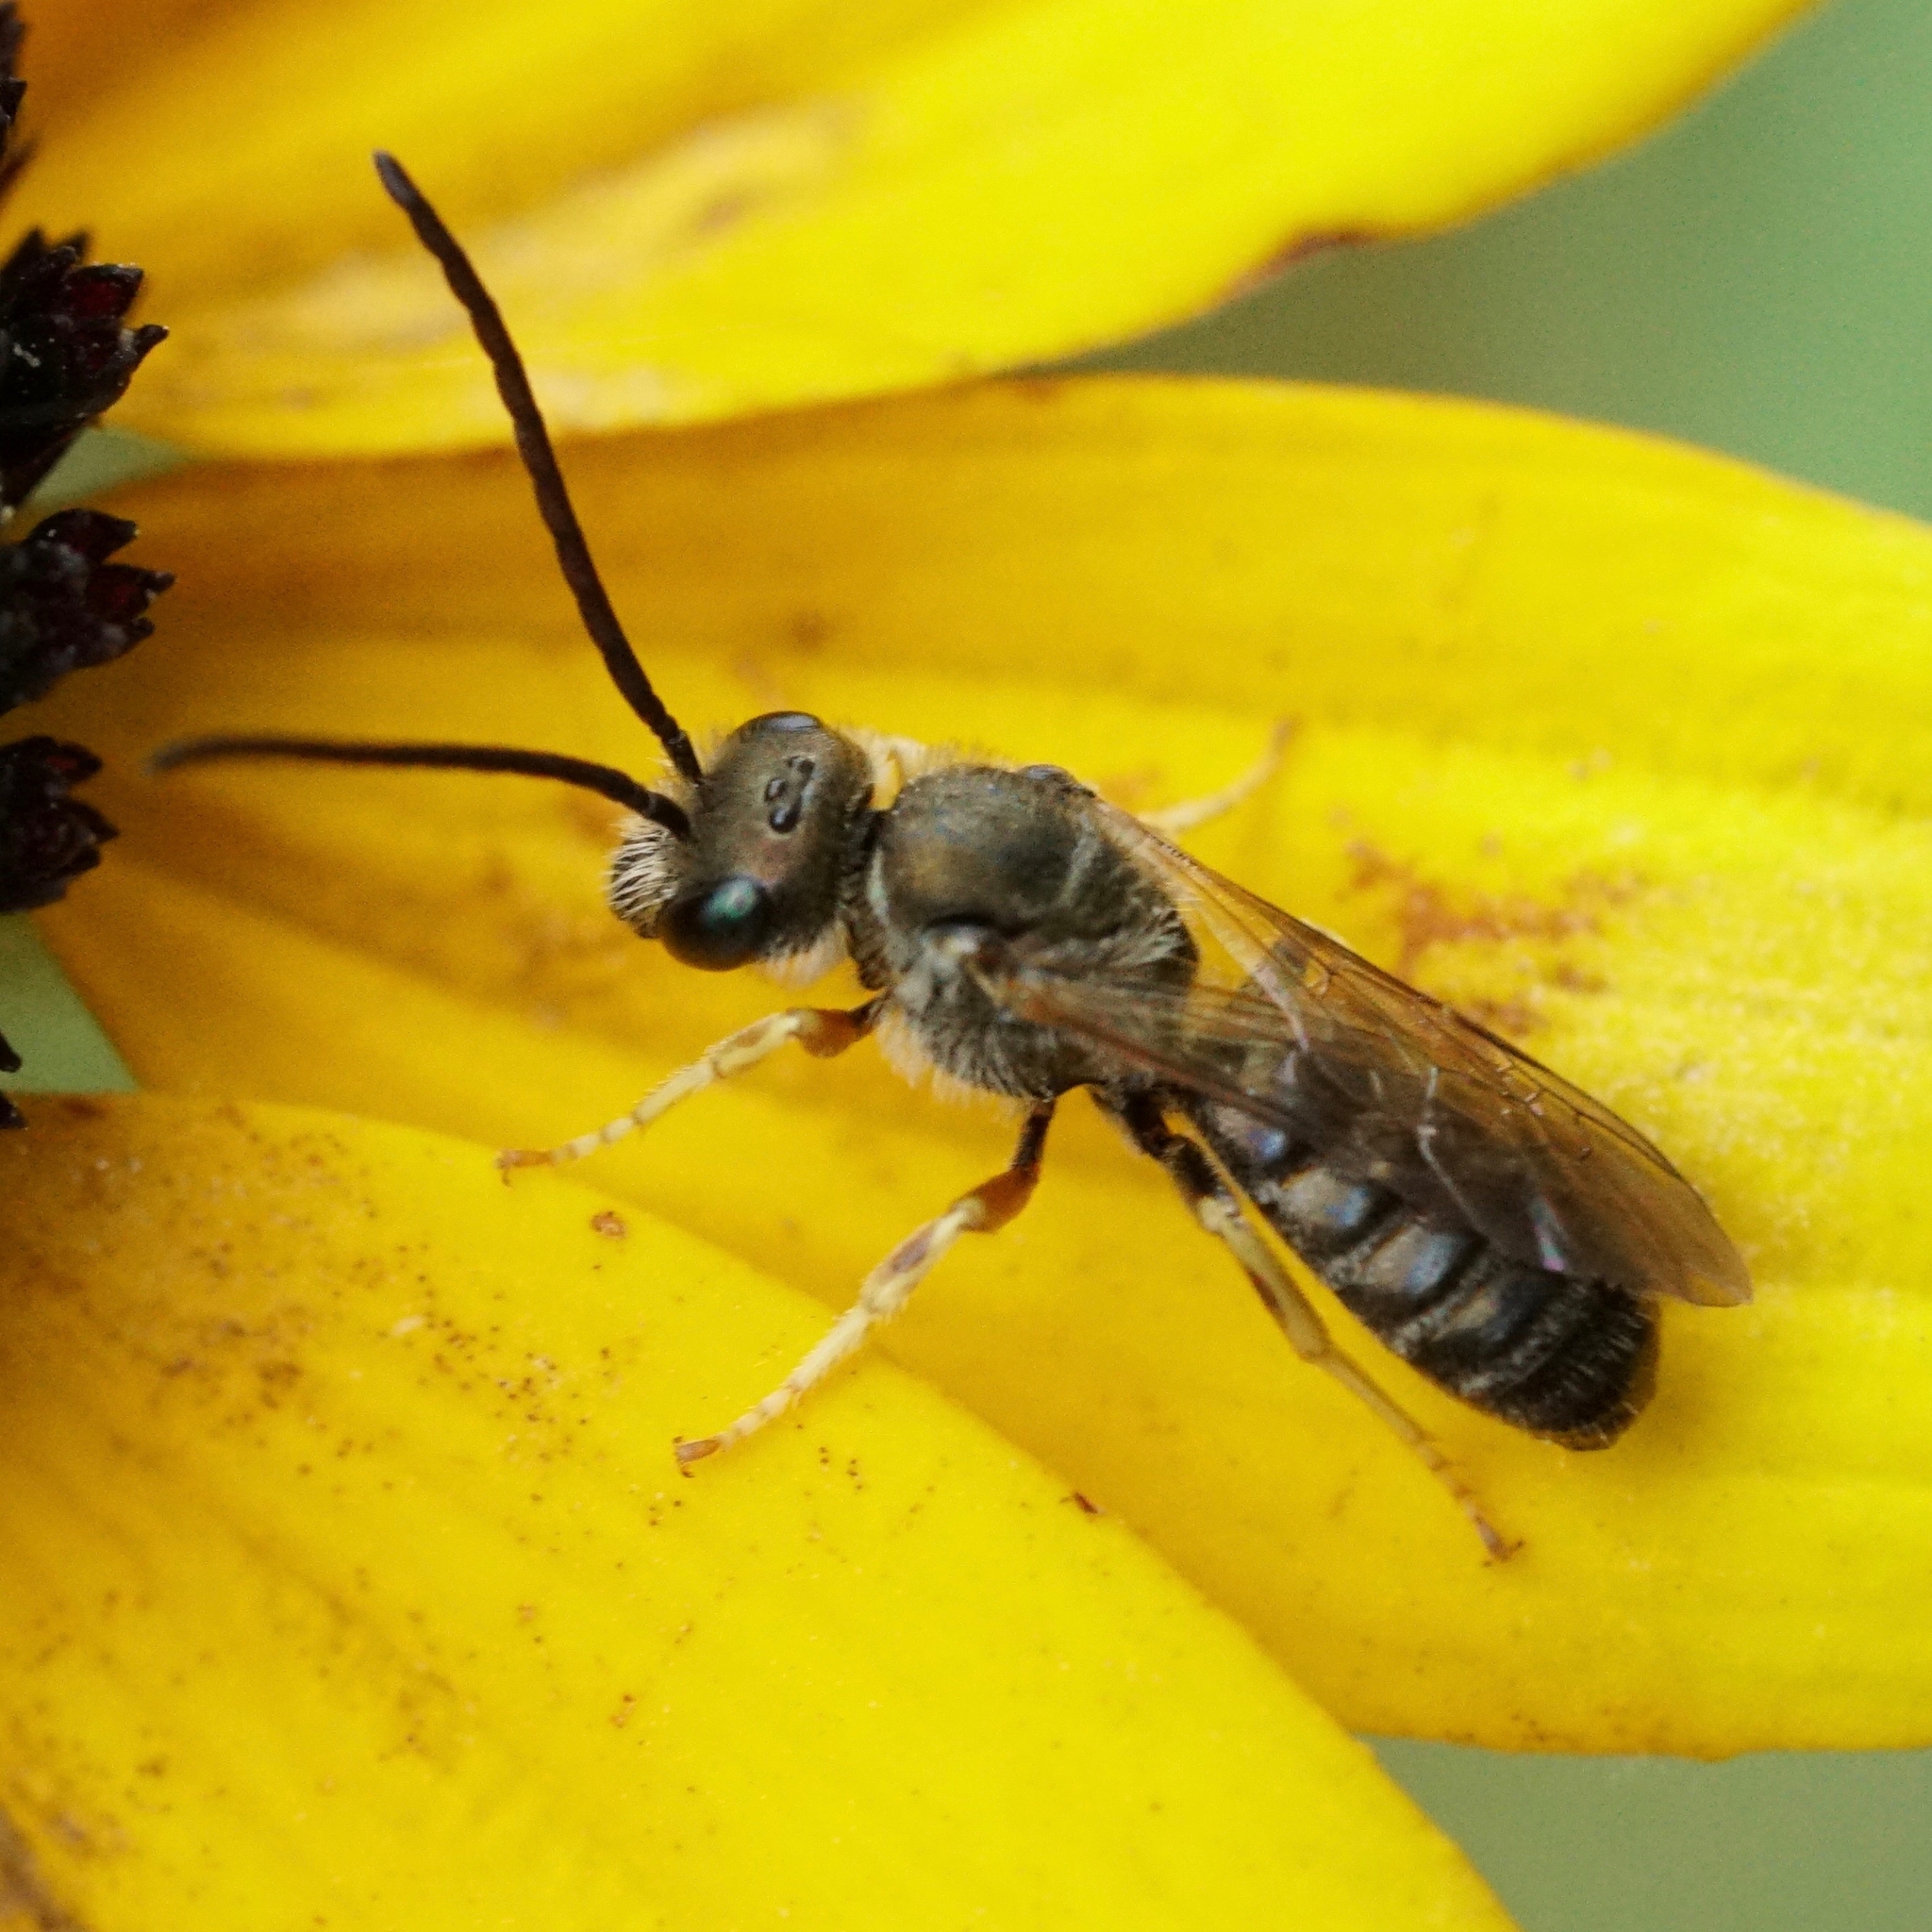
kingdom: Animalia
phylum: Arthropoda
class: Insecta
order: Hymenoptera
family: Halictidae
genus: Halictus
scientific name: Halictus confusus
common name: Southern bronze furrow bee
